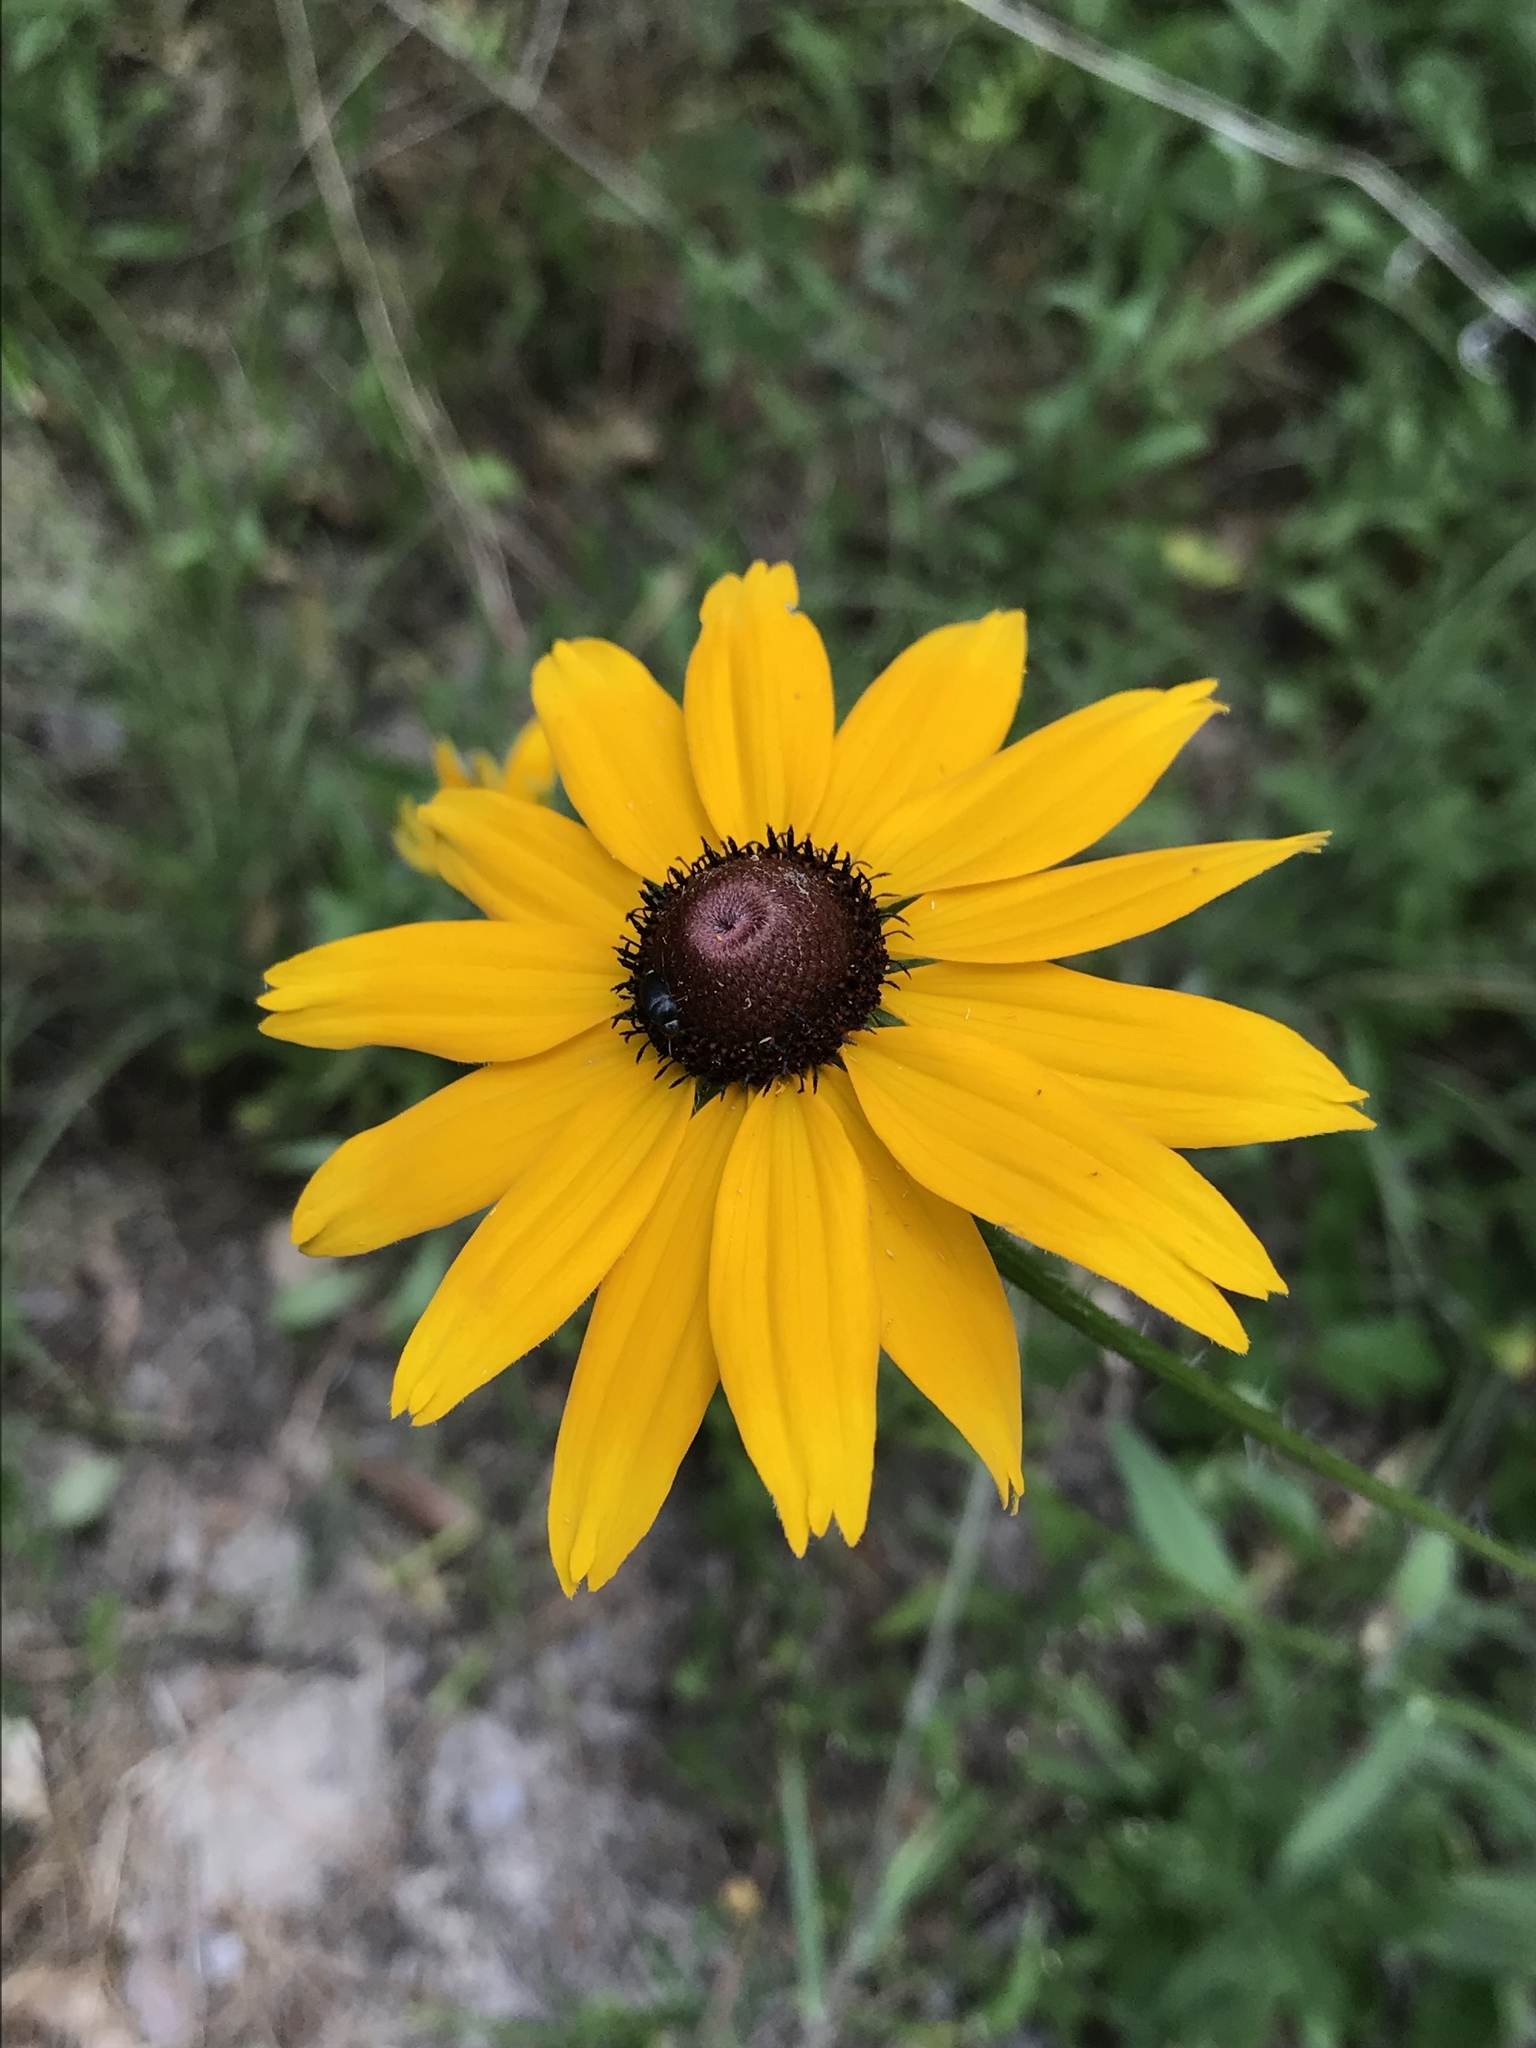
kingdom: Plantae
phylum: Tracheophyta
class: Magnoliopsida
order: Asterales
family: Asteraceae
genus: Rudbeckia
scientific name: Rudbeckia hirta
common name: Black-eyed-susan
